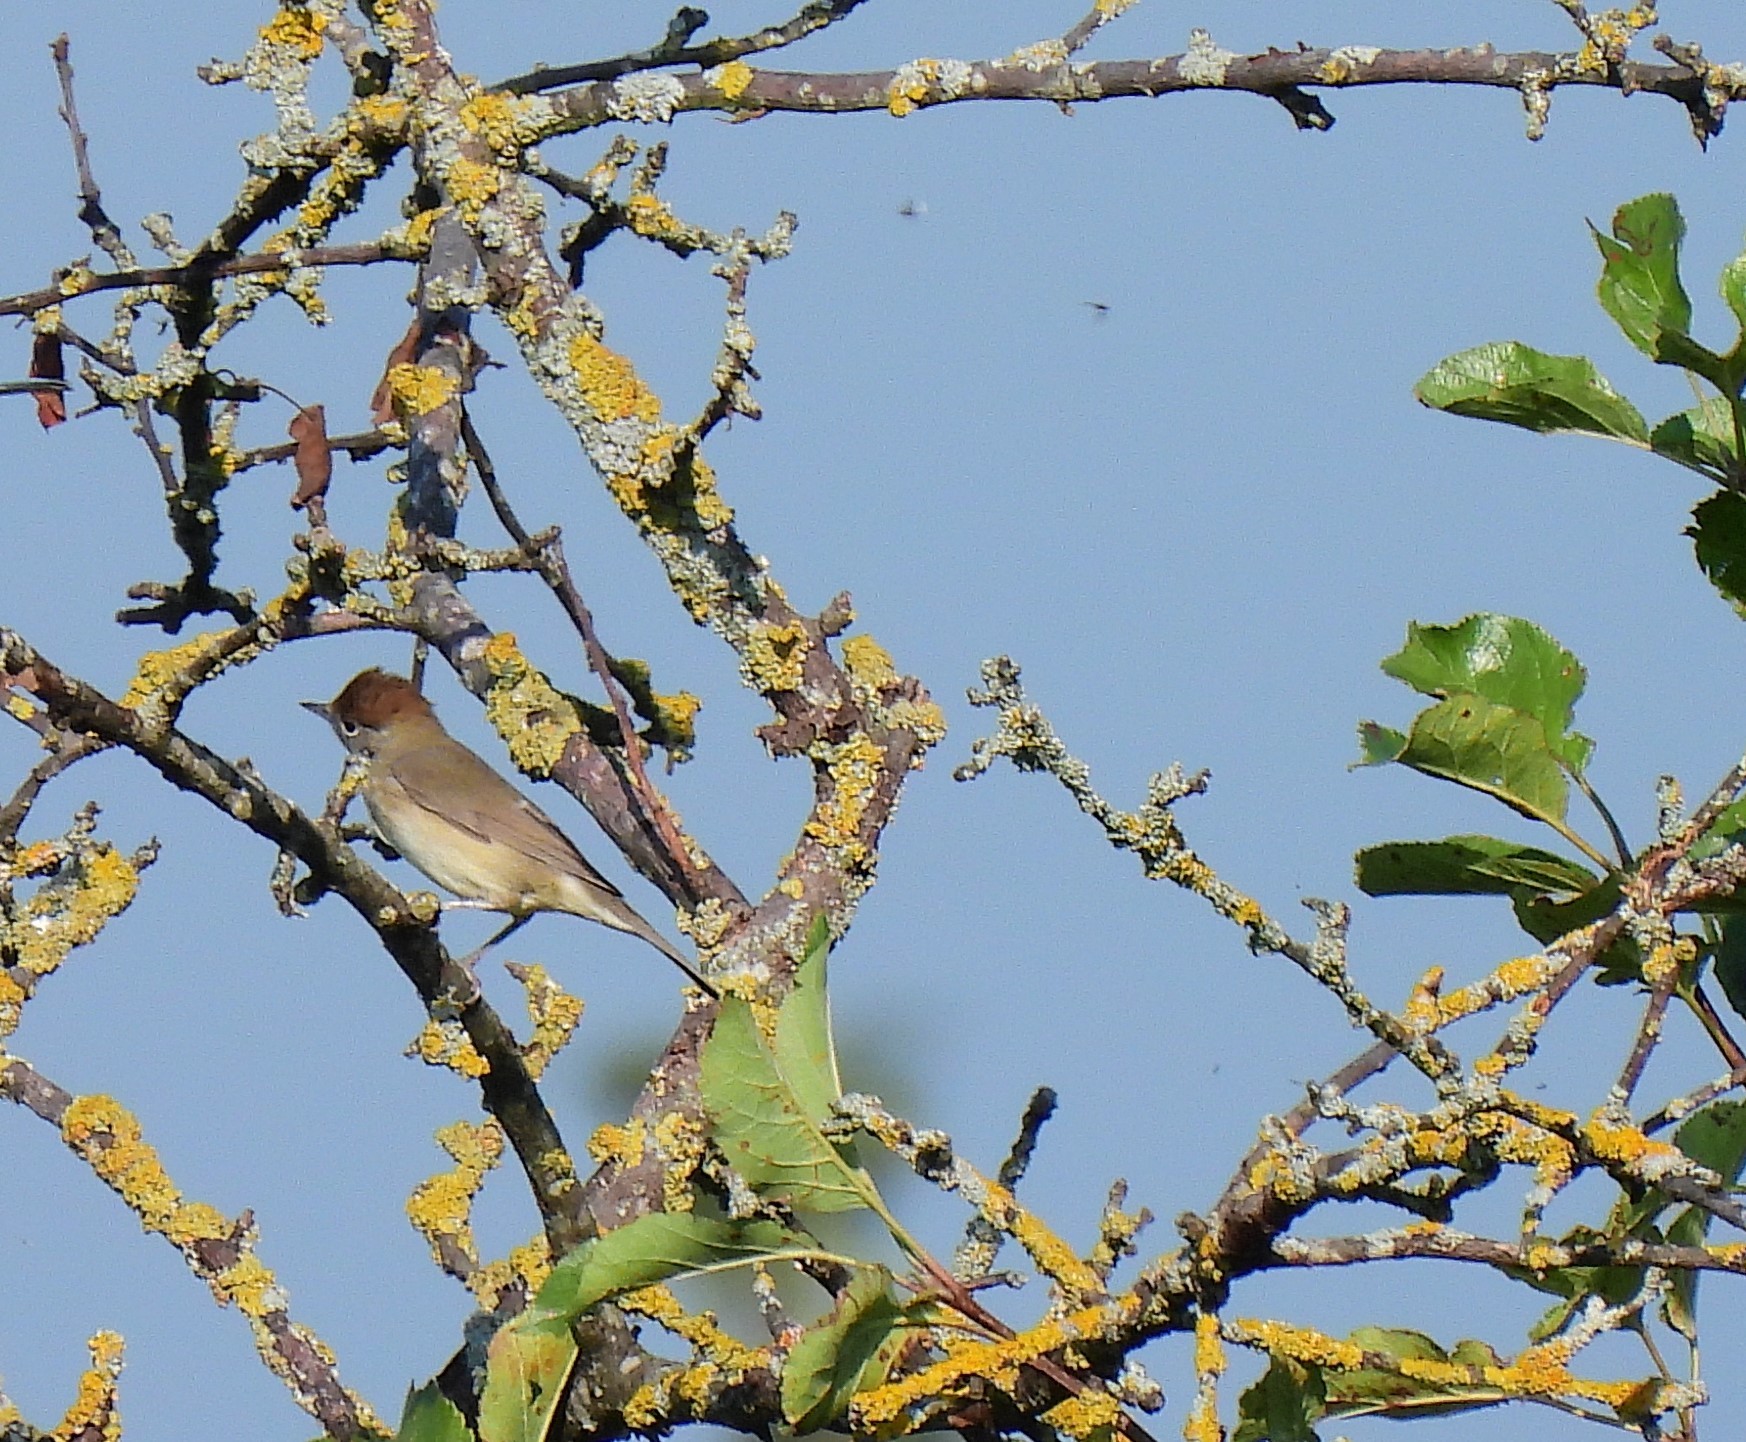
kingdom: Animalia
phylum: Chordata
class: Aves
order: Passeriformes
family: Sylviidae
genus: Sylvia
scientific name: Sylvia atricapilla
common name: Eurasian blackcap
